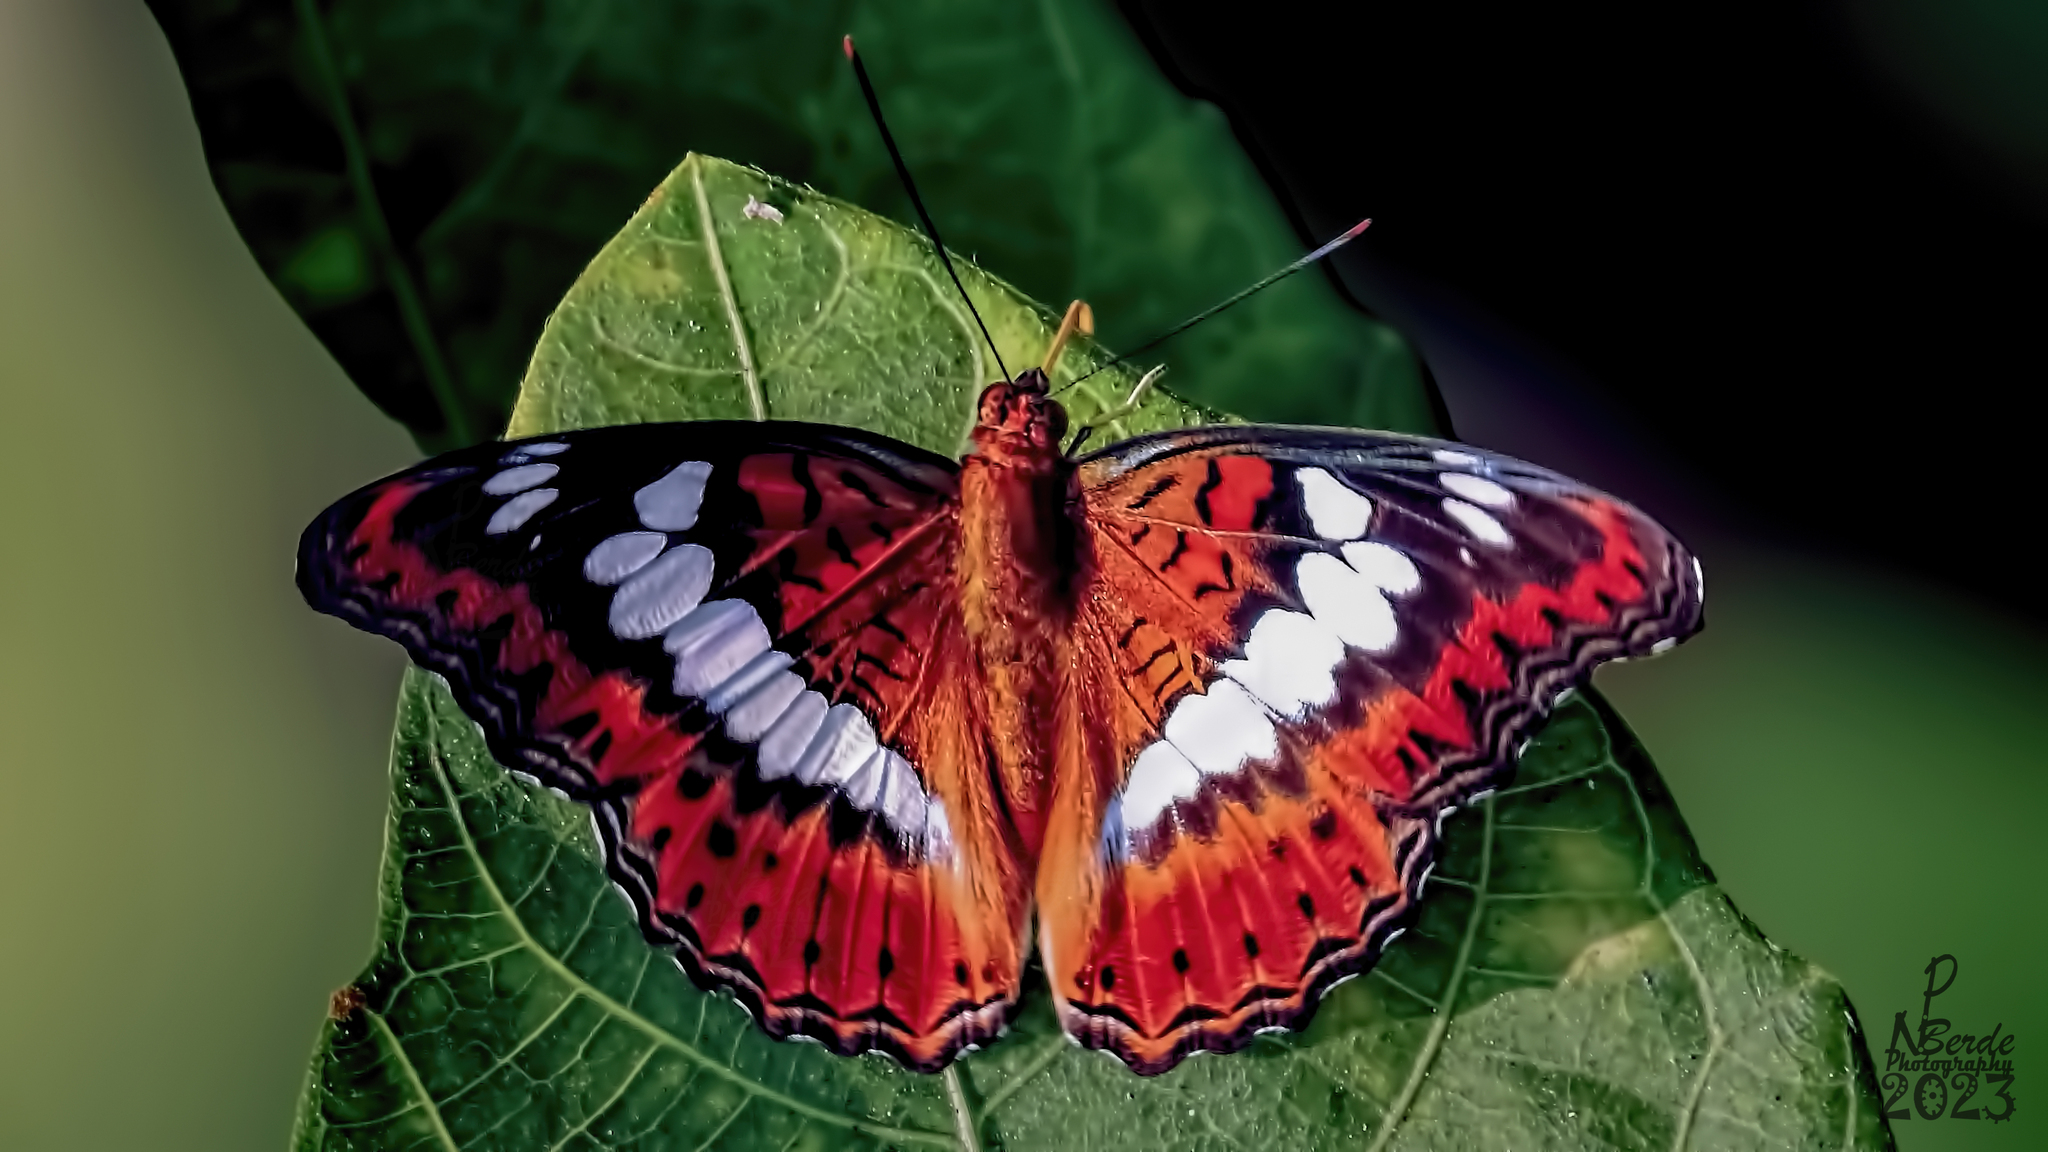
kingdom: Animalia
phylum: Arthropoda
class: Insecta
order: Lepidoptera
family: Nymphalidae
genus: Limenitis
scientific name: Limenitis Moduza procris
